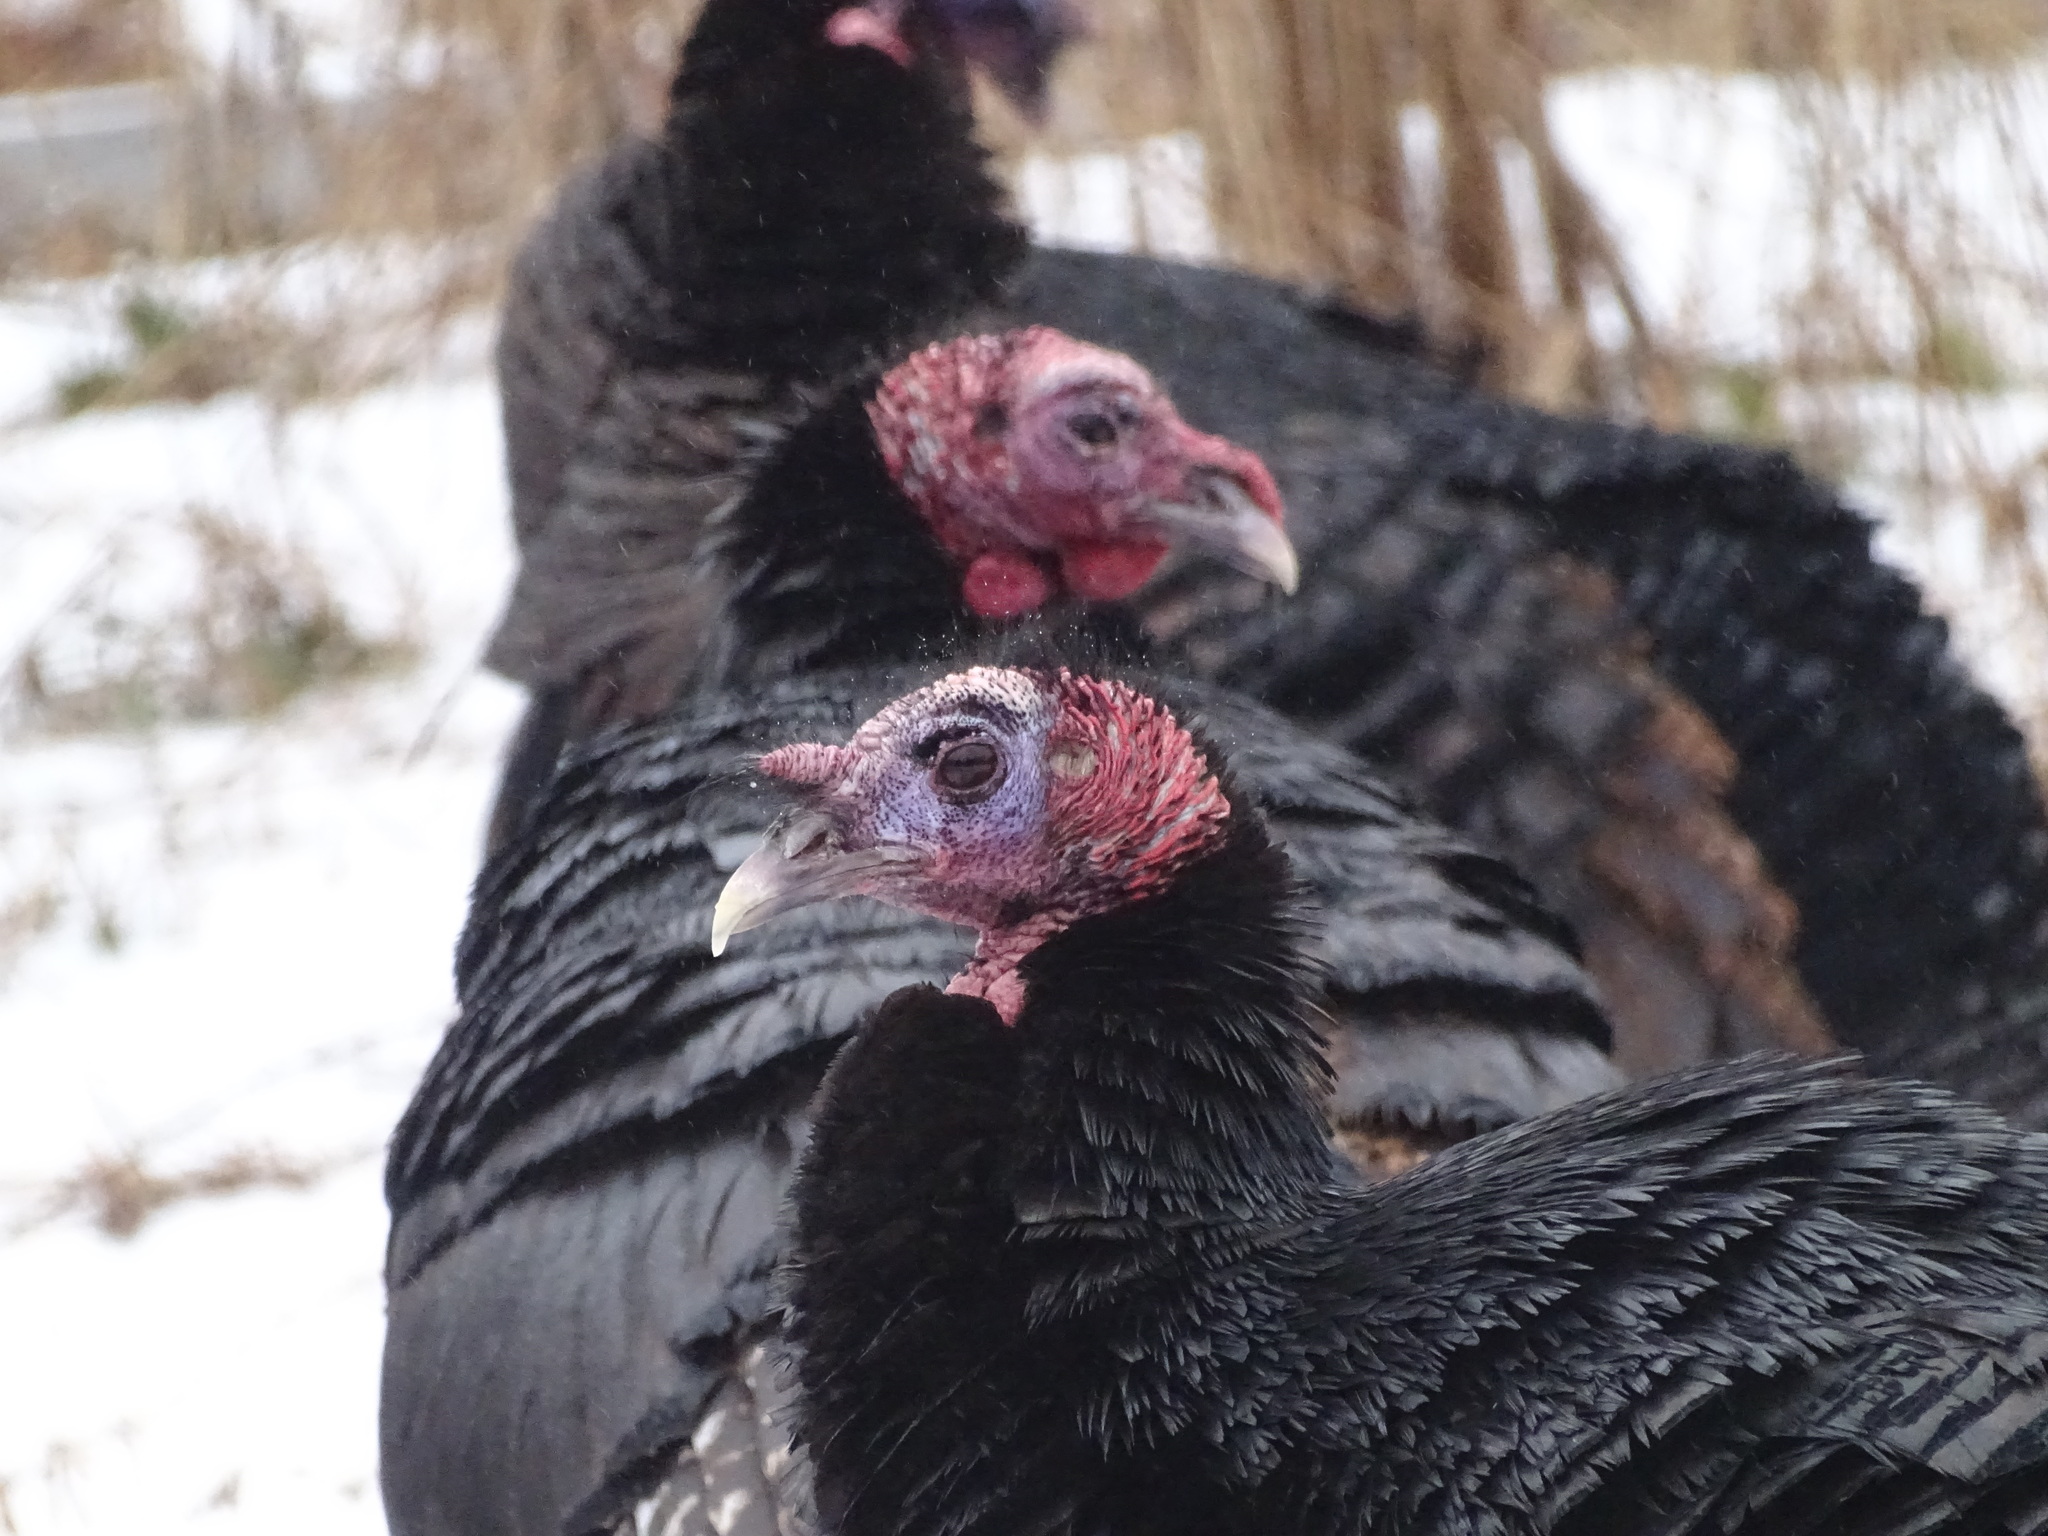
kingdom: Animalia
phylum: Chordata
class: Aves
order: Galliformes
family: Phasianidae
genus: Meleagris
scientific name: Meleagris gallopavo
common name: Wild turkey
